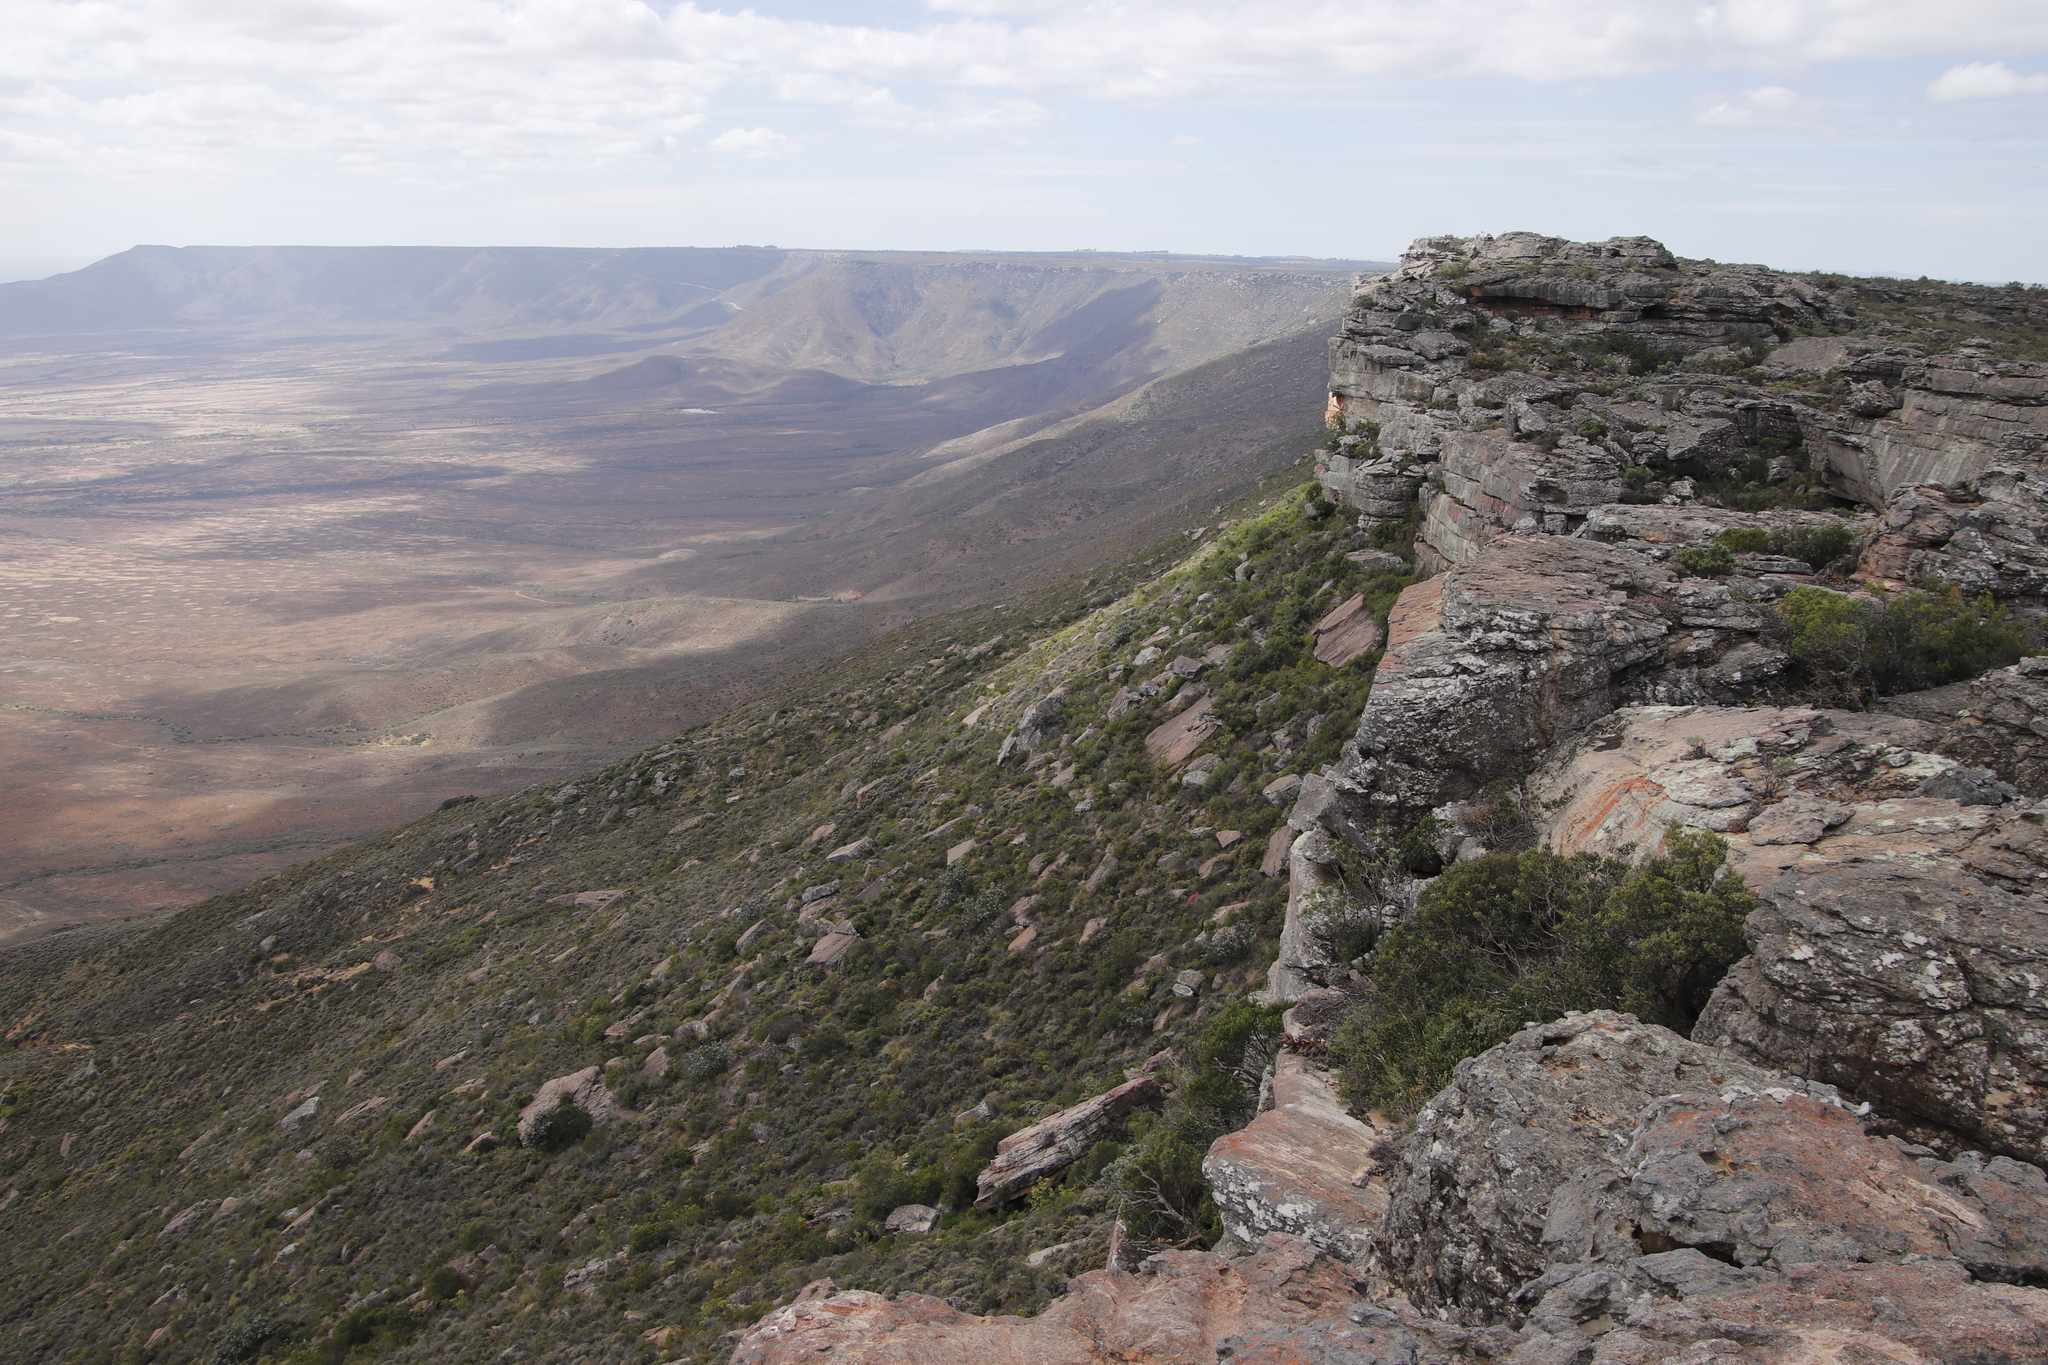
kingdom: Plantae
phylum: Tracheophyta
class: Magnoliopsida
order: Celastrales
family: Celastraceae
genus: Gymnosporia
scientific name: Gymnosporia laurina
